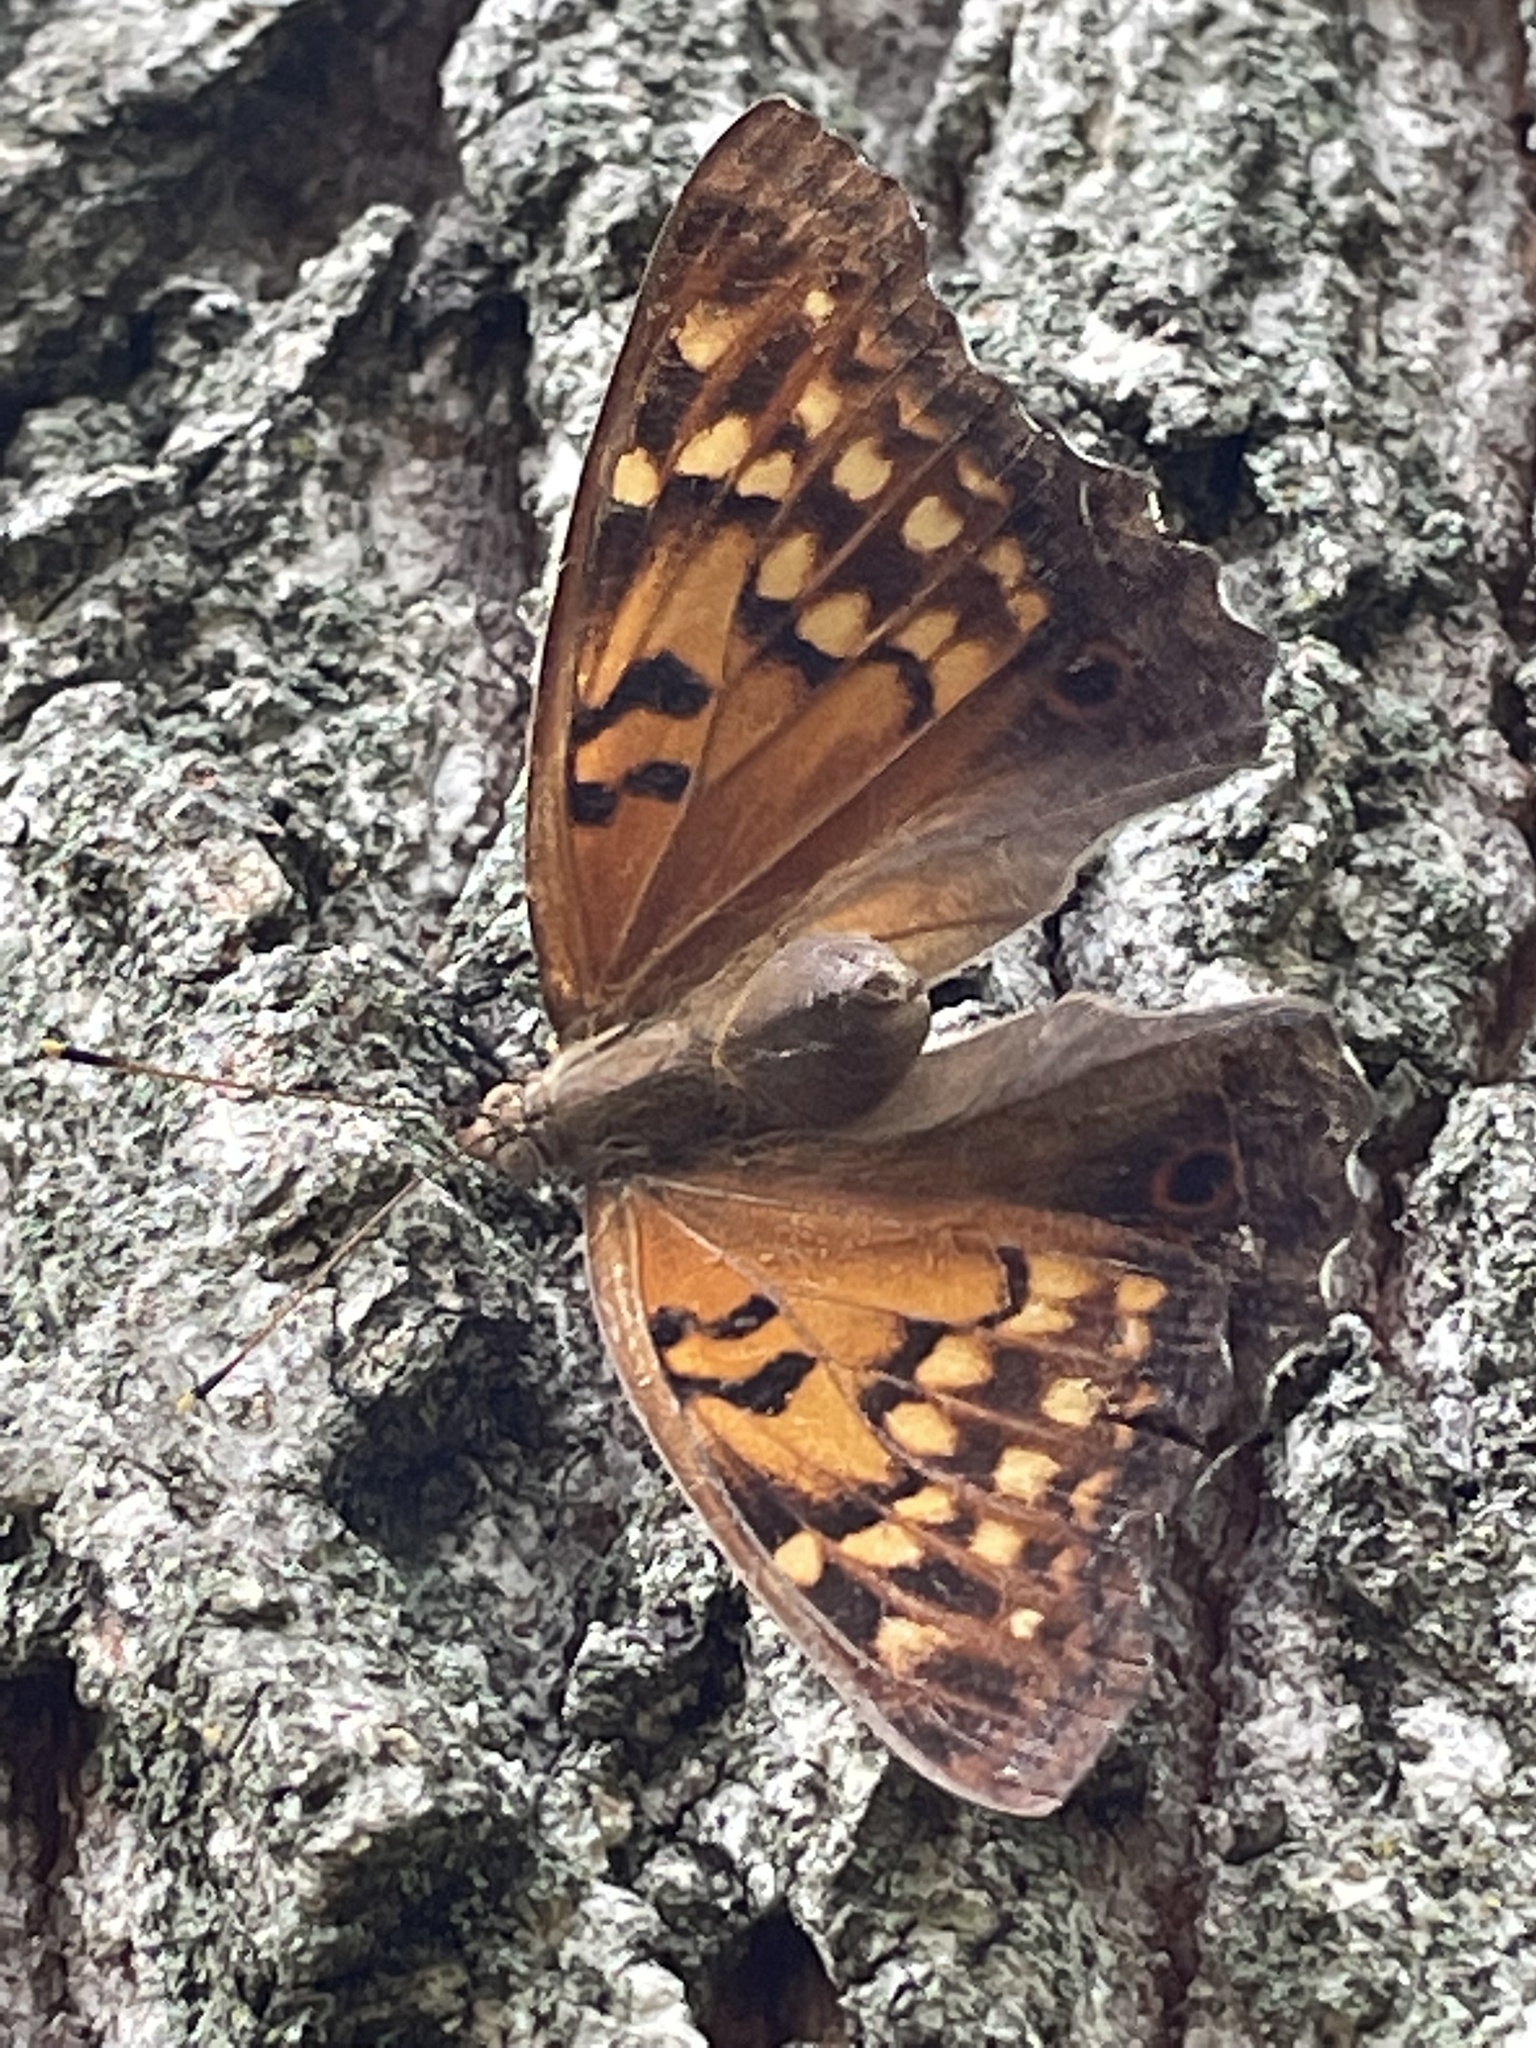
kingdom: Animalia
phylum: Arthropoda
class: Insecta
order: Lepidoptera
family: Nymphalidae
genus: Asterocampa
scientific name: Asterocampa clyton
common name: Tawny emperor
